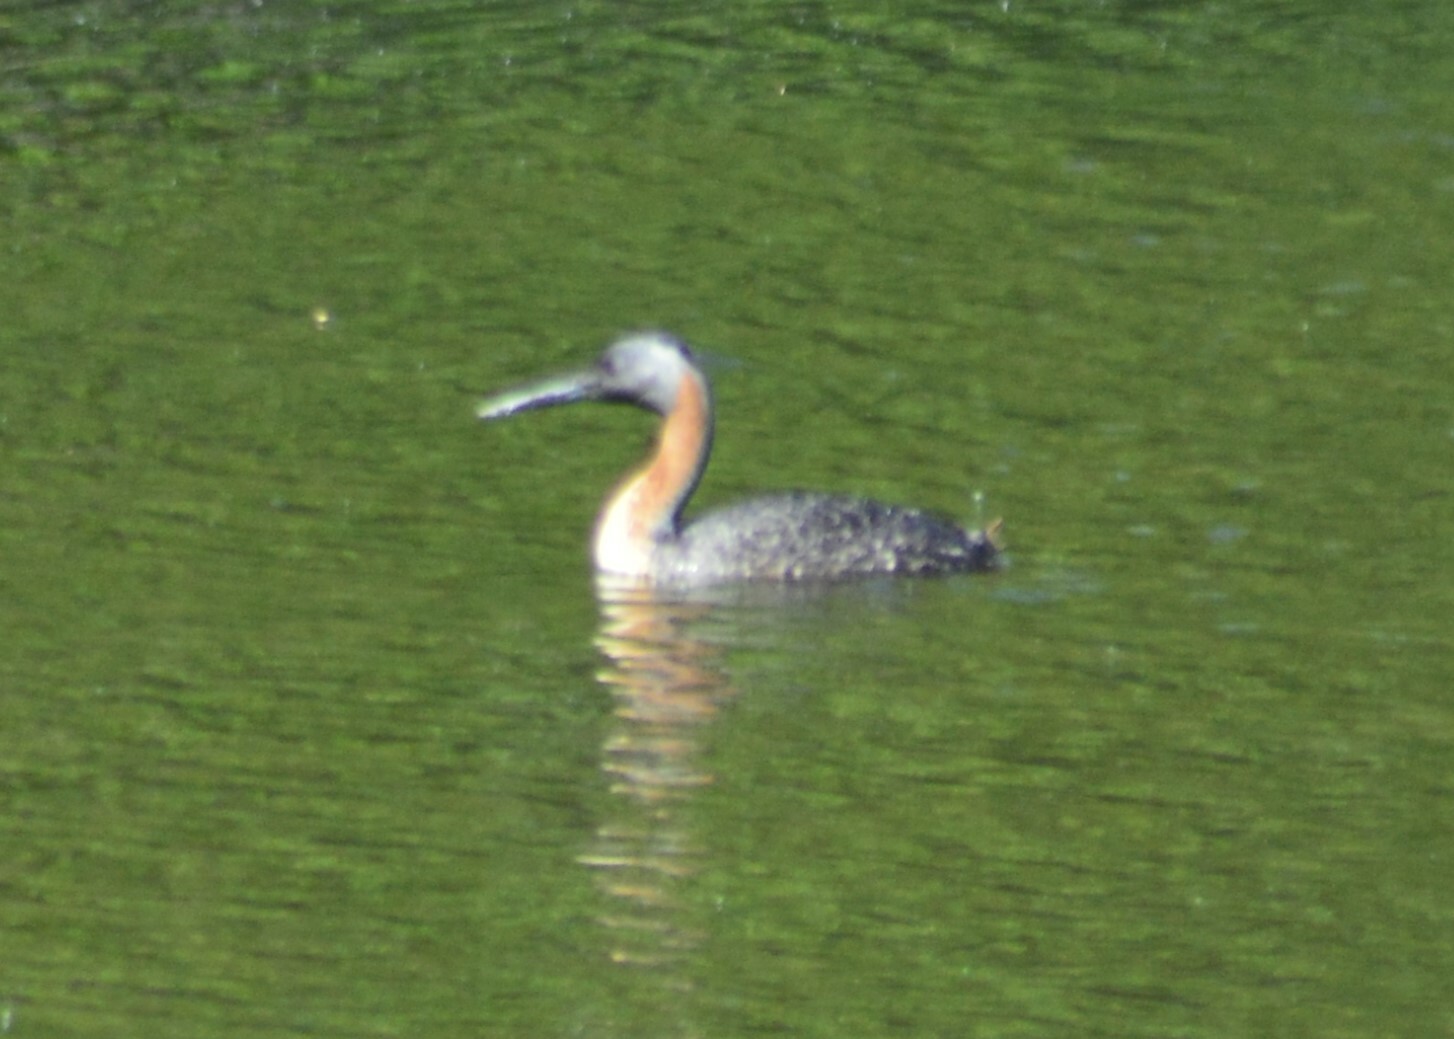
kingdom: Animalia
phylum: Chordata
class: Aves
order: Podicipediformes
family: Podicipedidae
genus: Podiceps
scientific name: Podiceps major
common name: Great grebe
